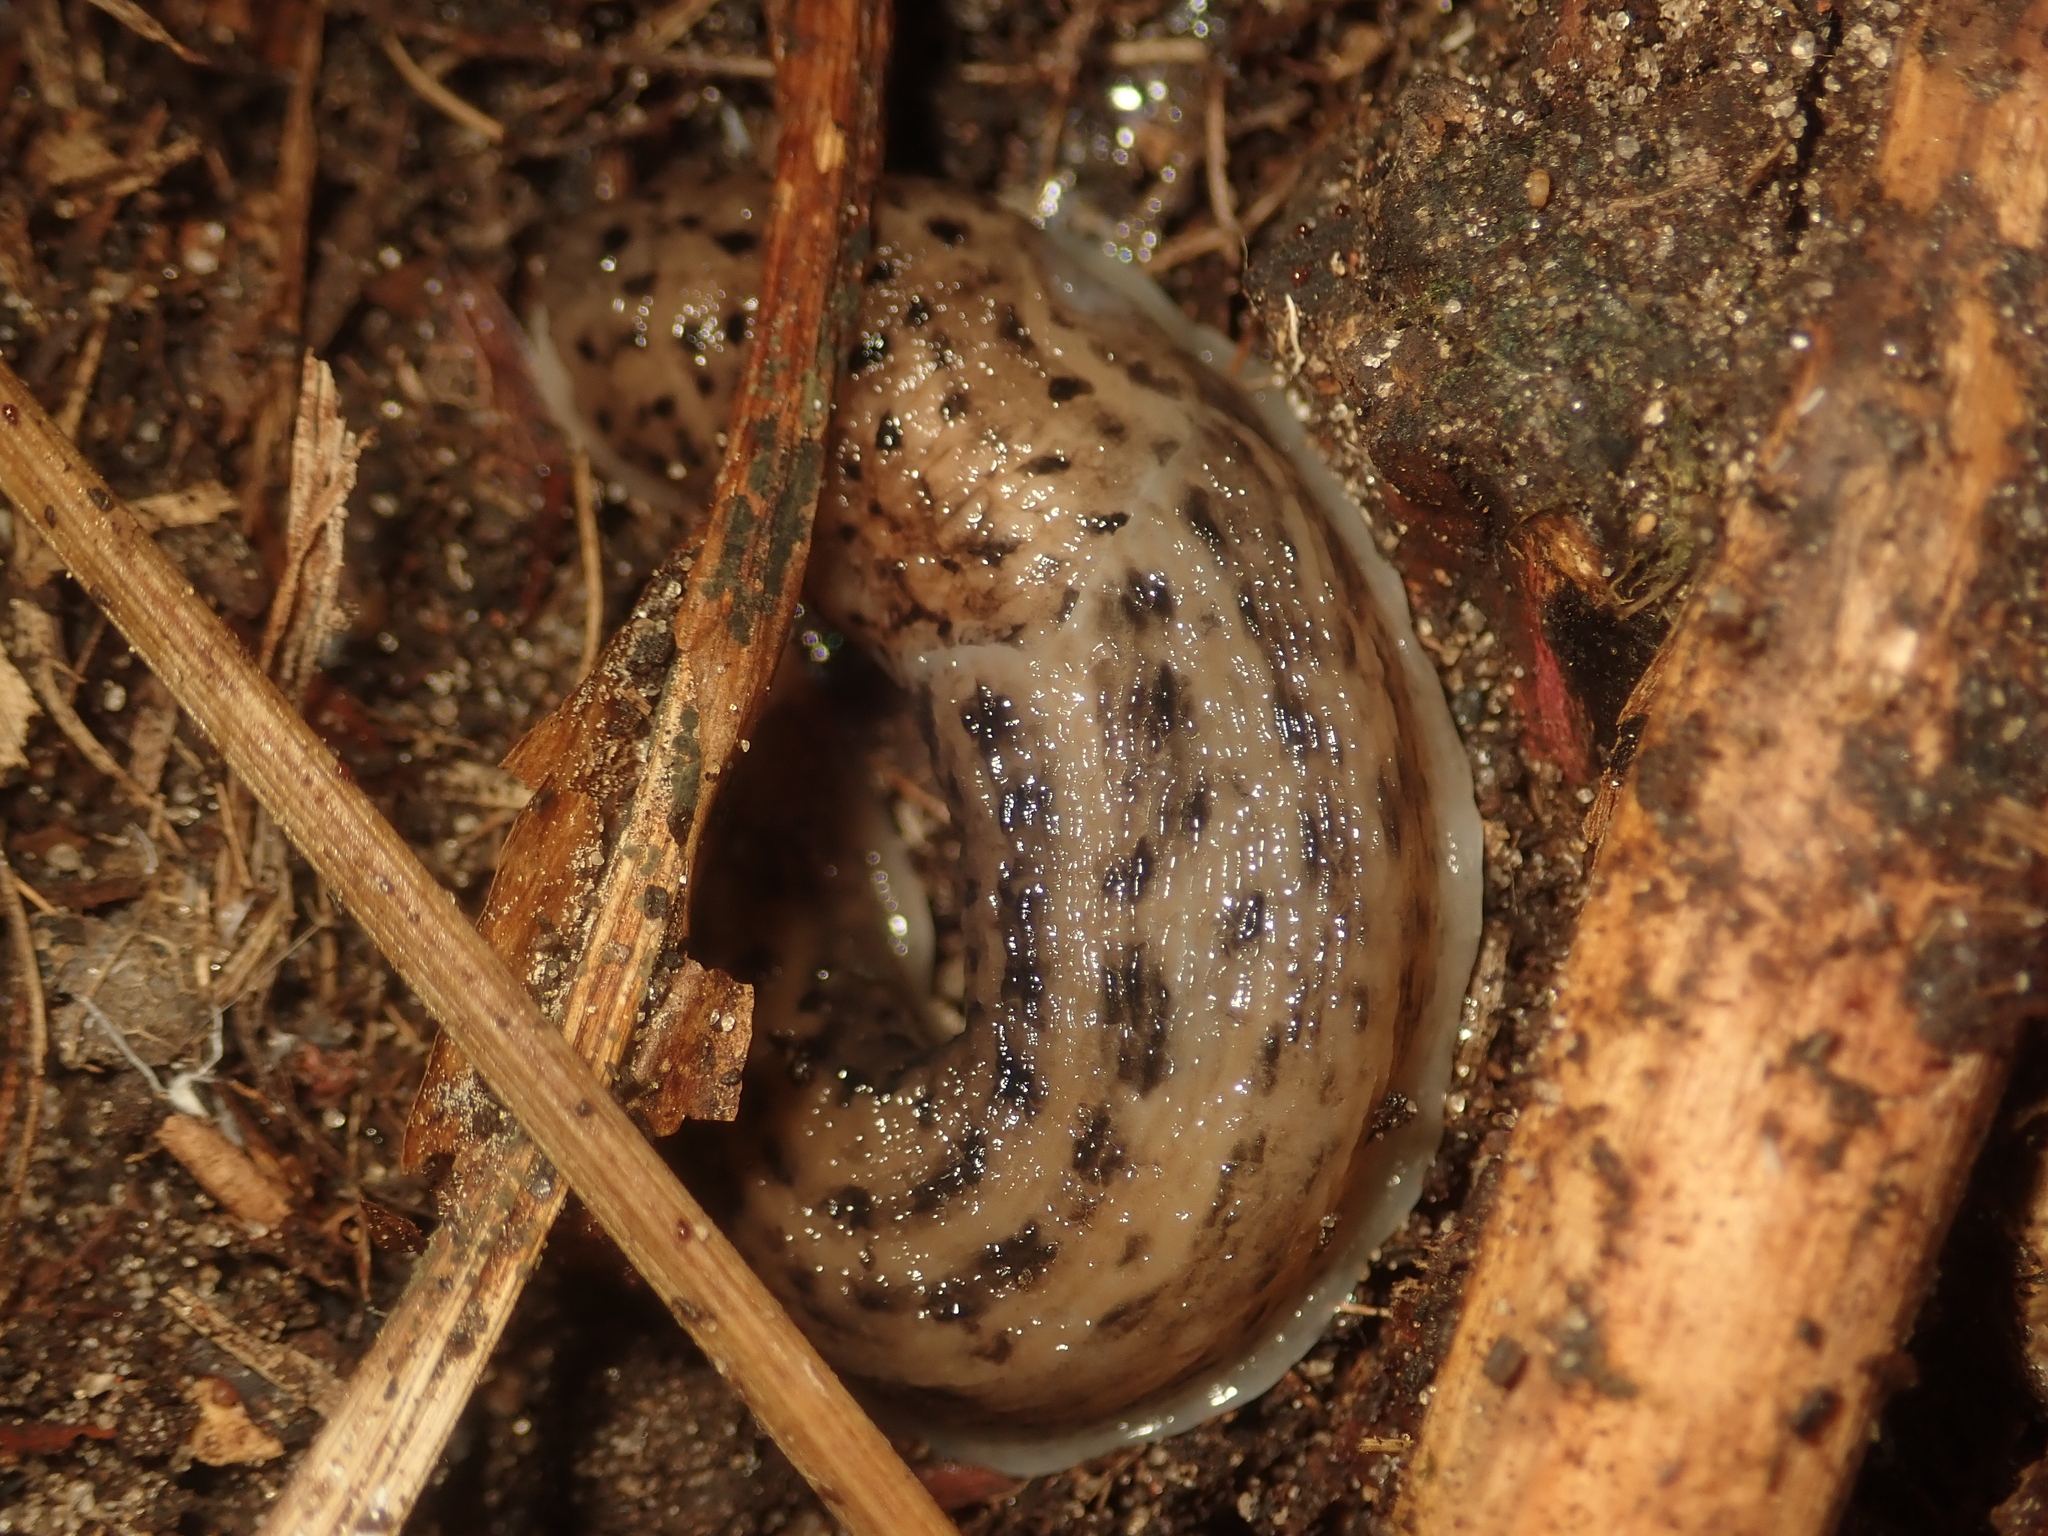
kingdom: Animalia
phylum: Mollusca
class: Gastropoda
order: Stylommatophora
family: Limacidae
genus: Limax
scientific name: Limax maximus
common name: Great grey slug
